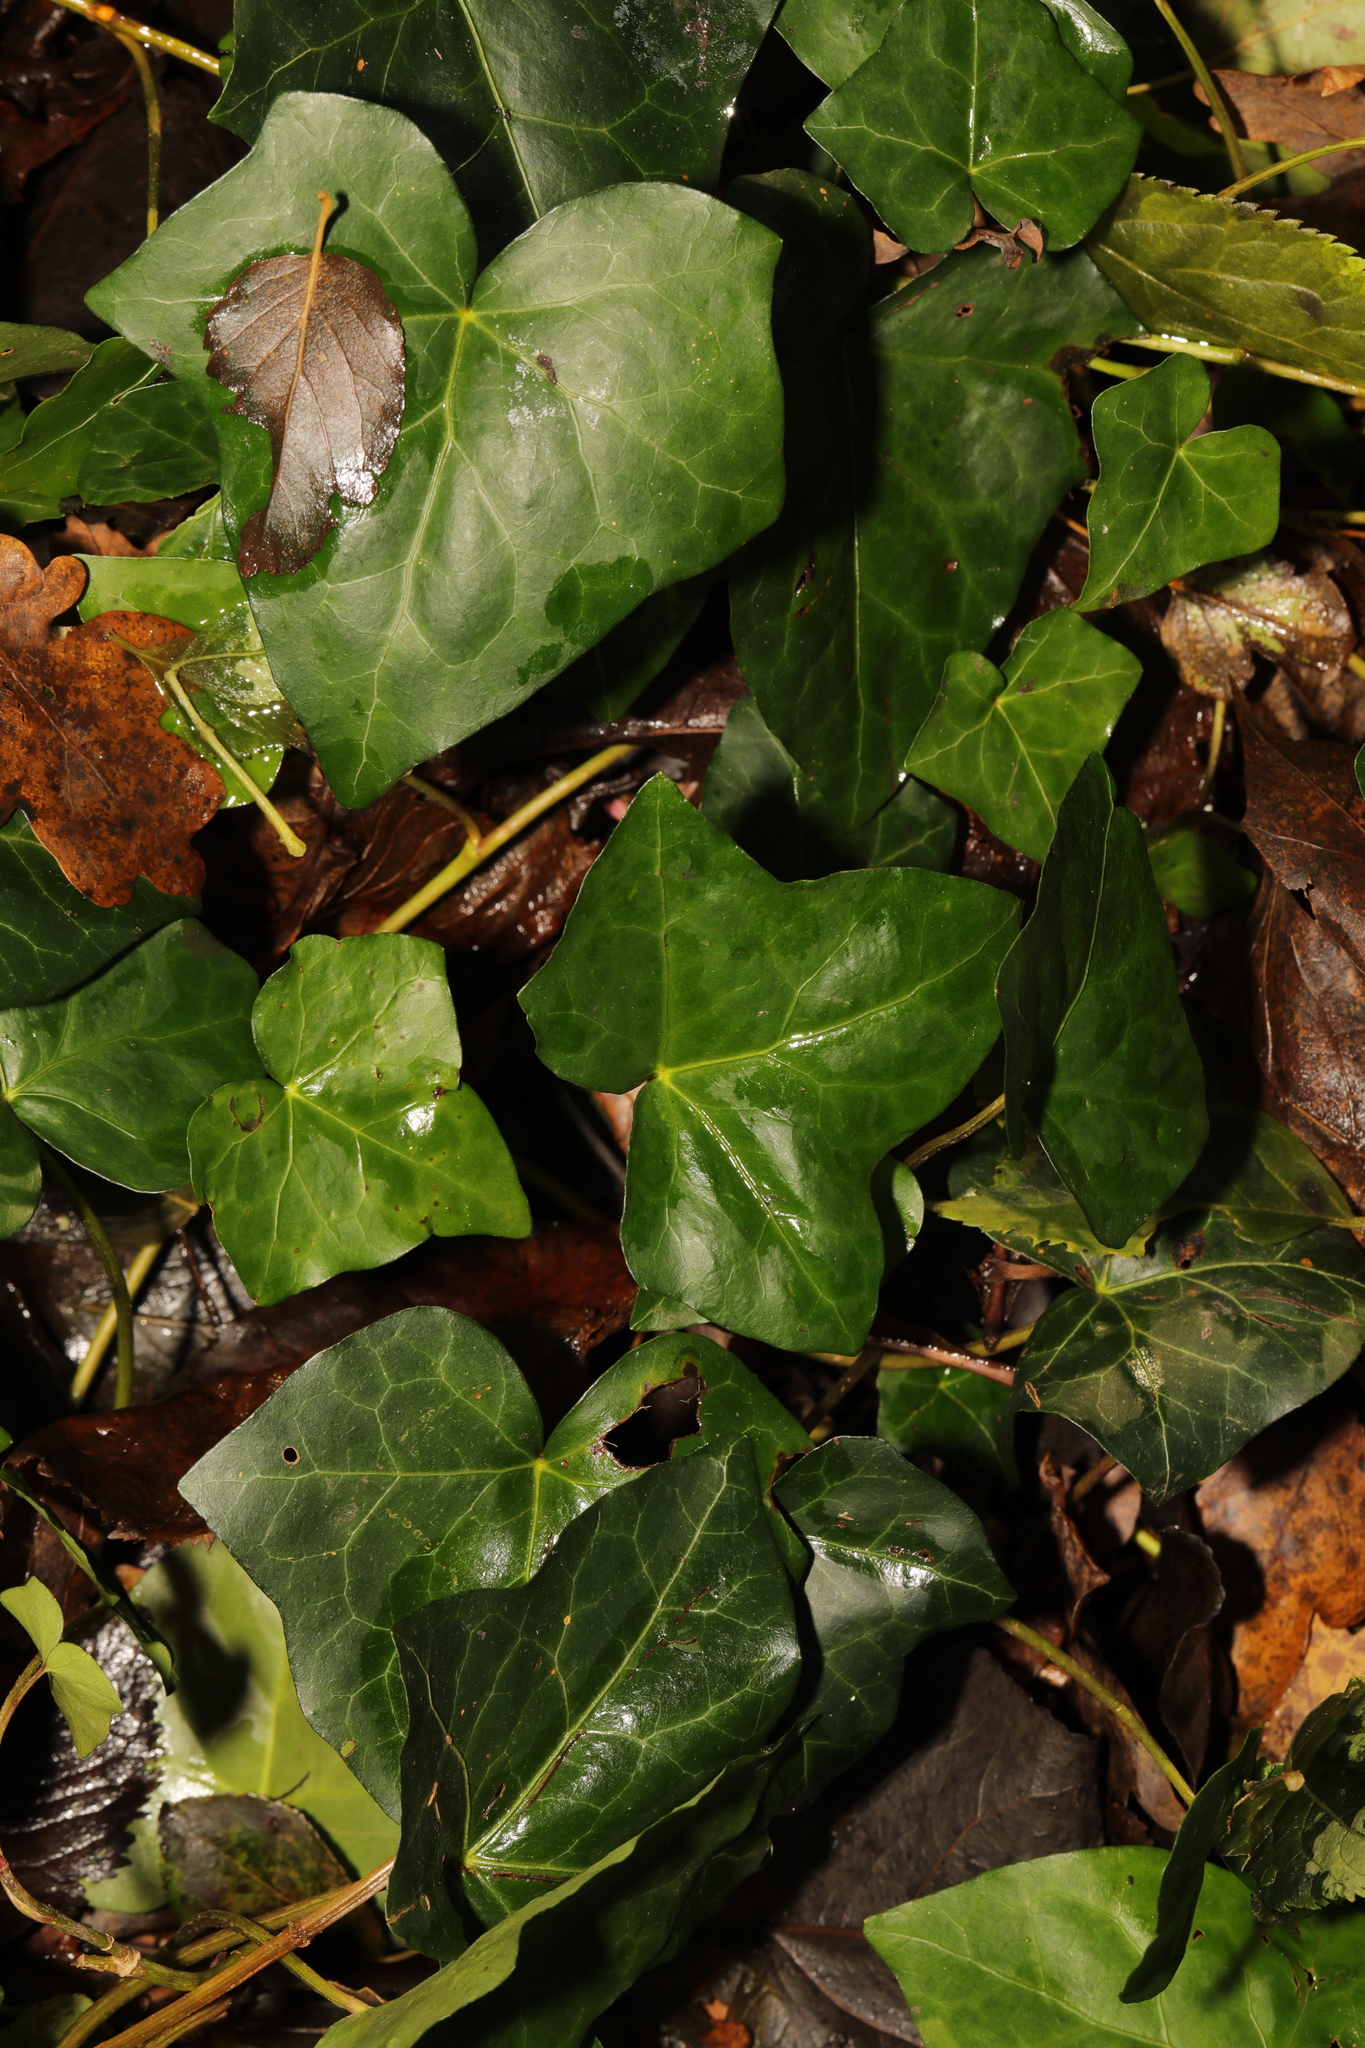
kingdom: Plantae
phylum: Tracheophyta
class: Magnoliopsida
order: Apiales
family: Araliaceae
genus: Hedera
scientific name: Hedera helix
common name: Ivy
